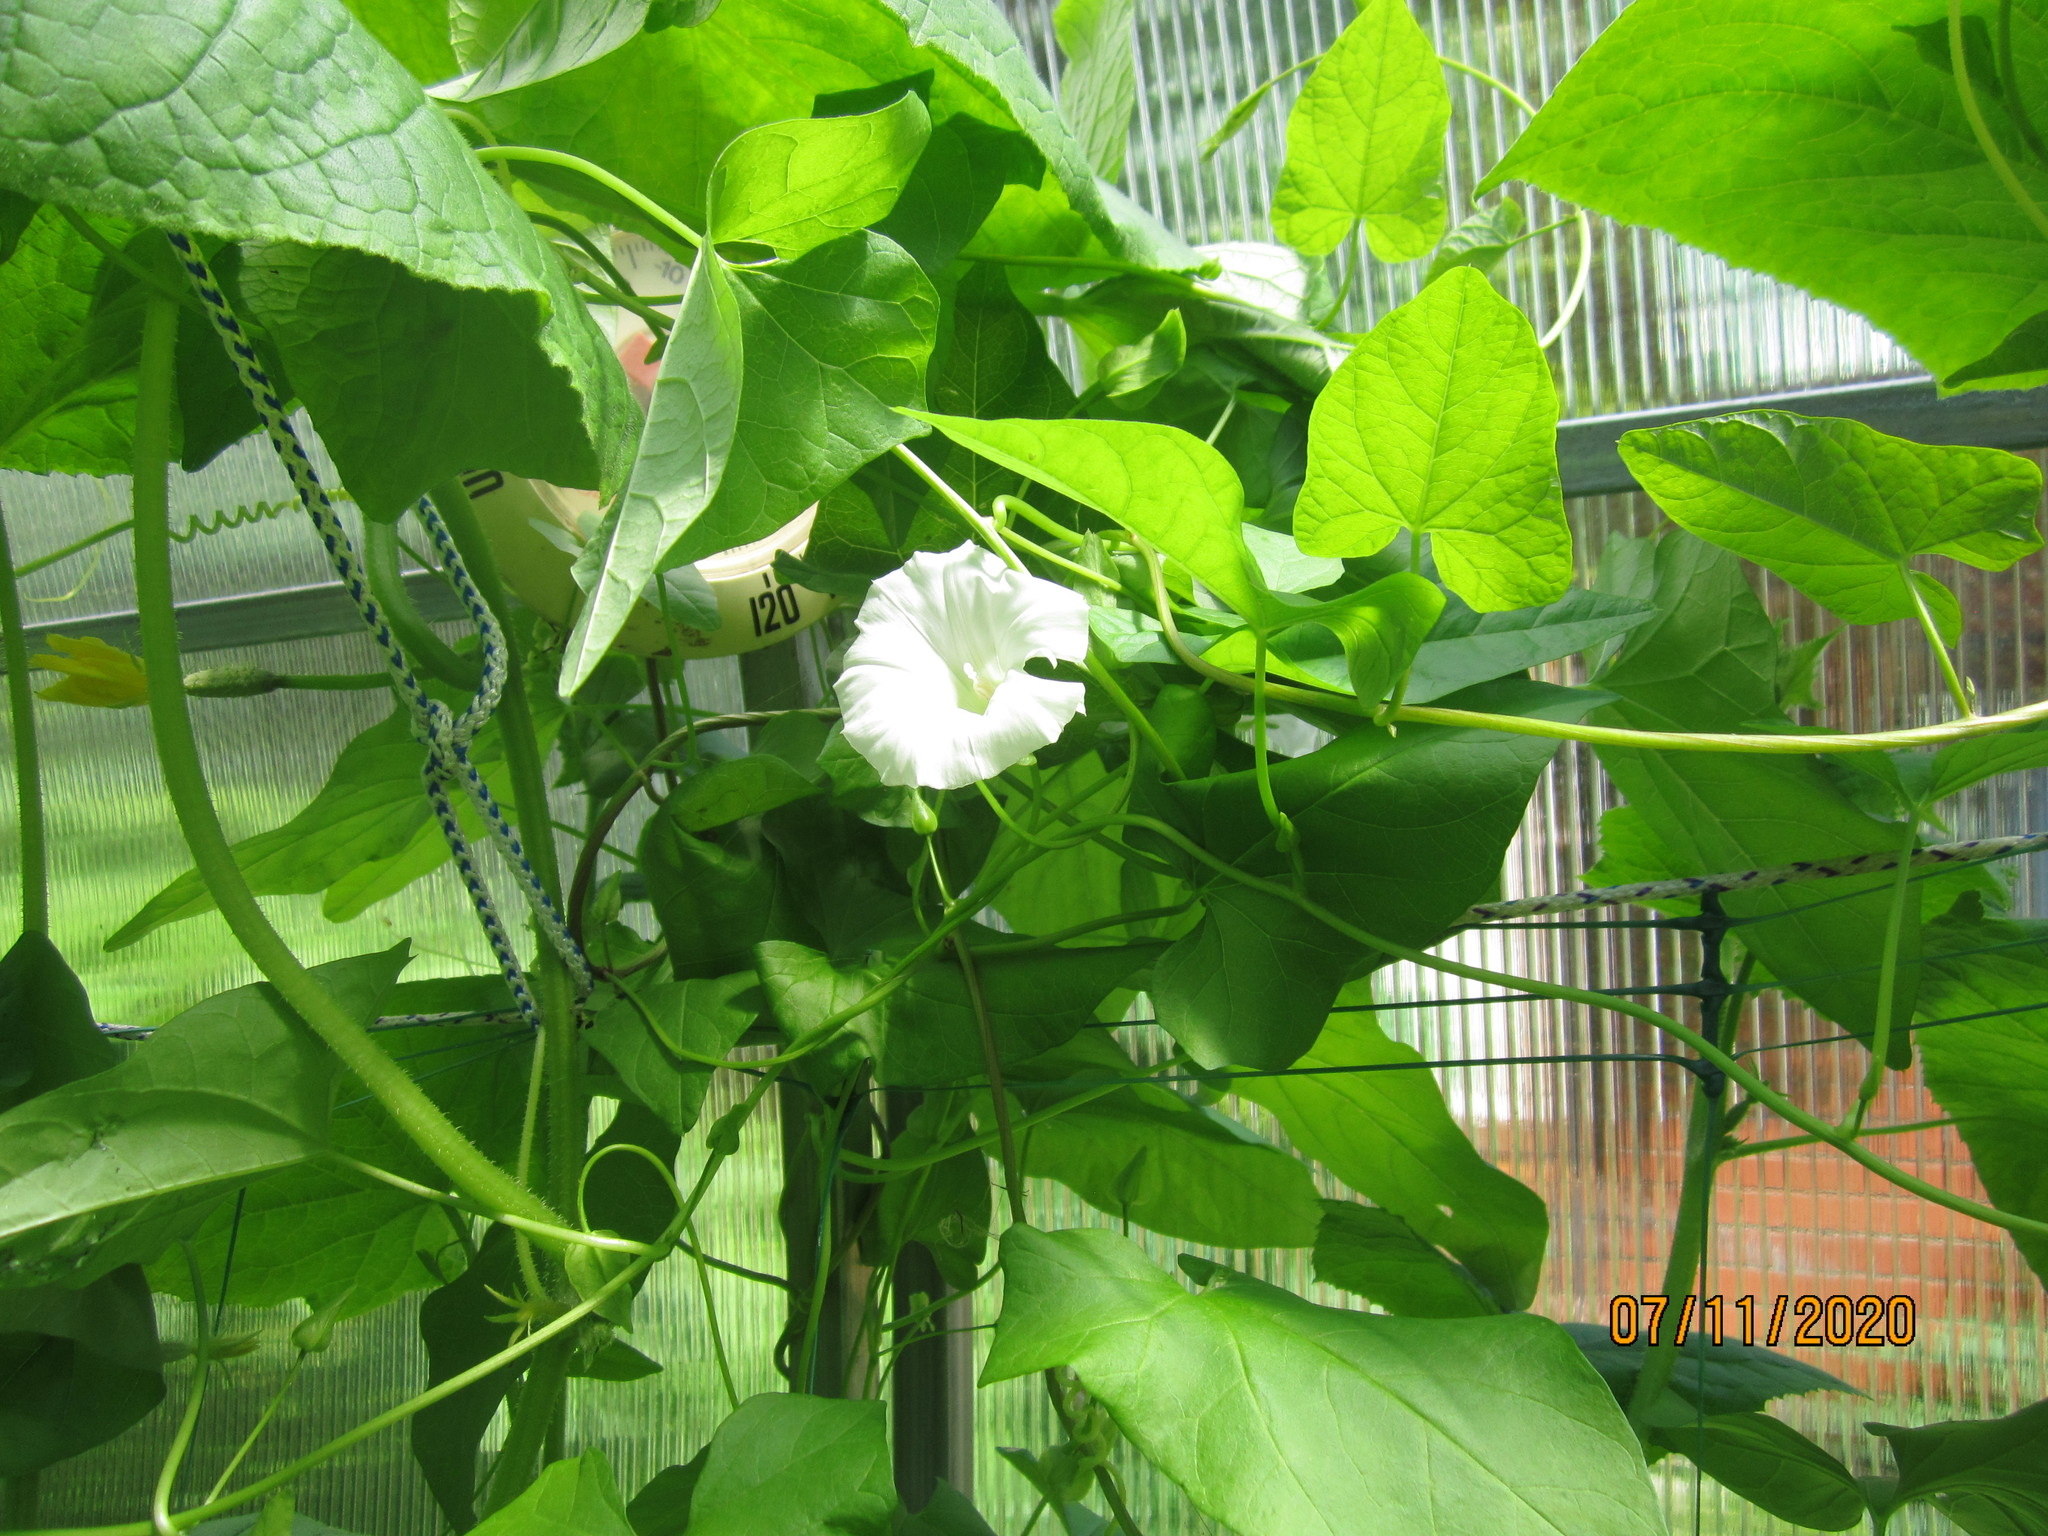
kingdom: Plantae
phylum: Tracheophyta
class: Magnoliopsida
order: Solanales
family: Convolvulaceae
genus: Calystegia
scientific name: Calystegia sepium
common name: Hedge bindweed
